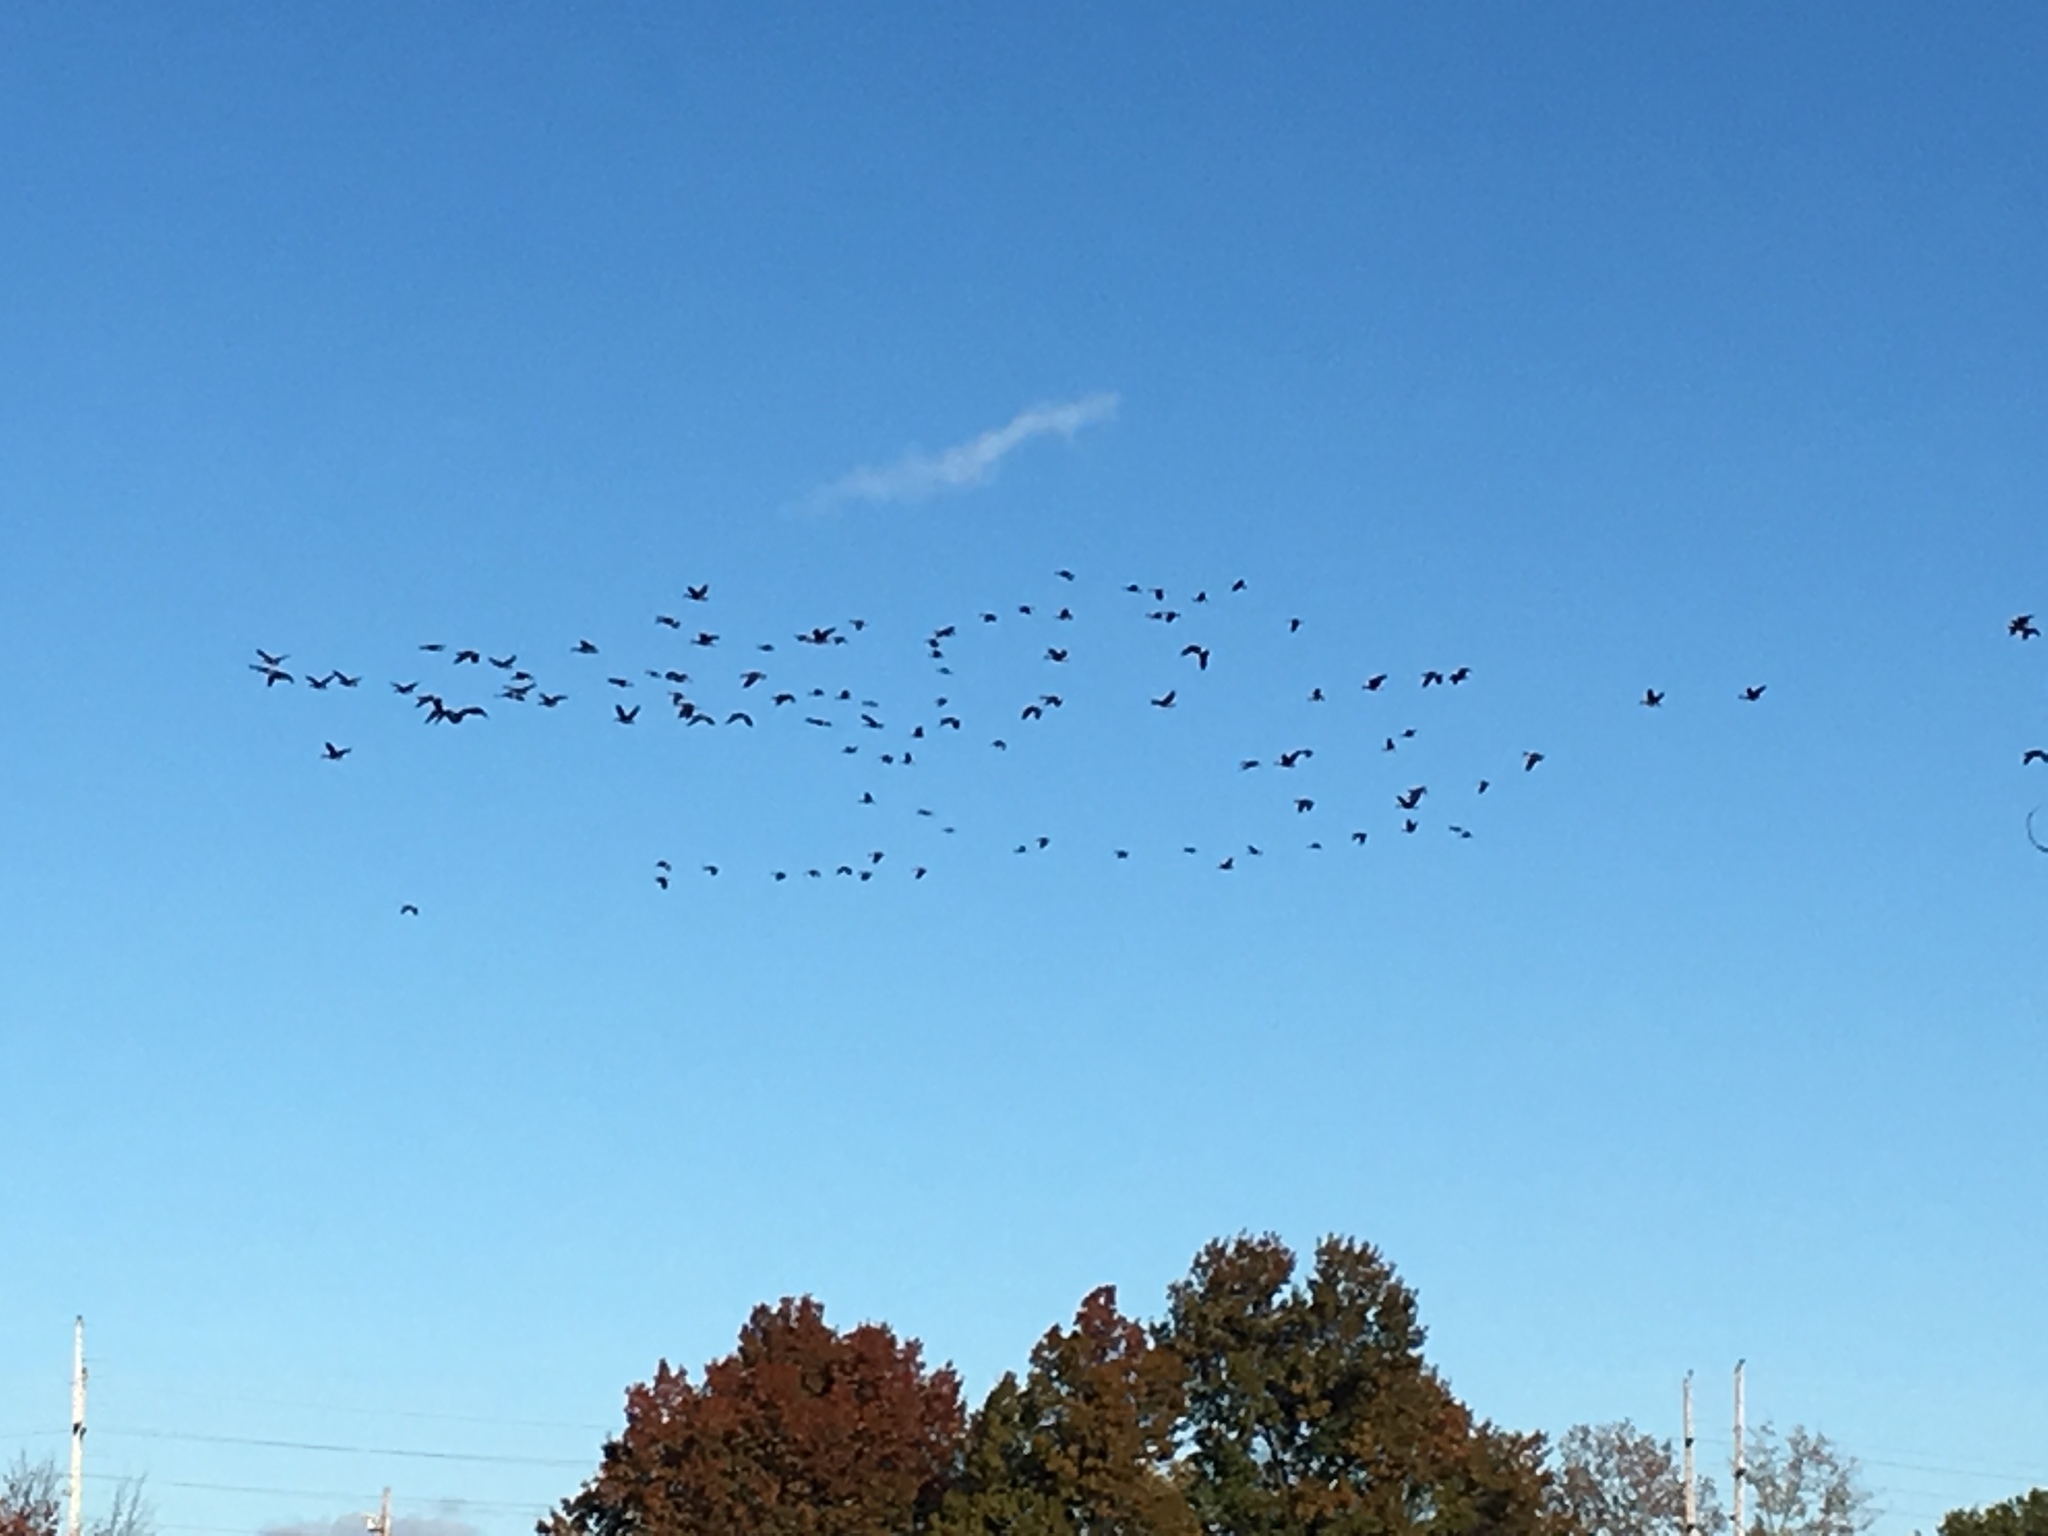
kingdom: Animalia
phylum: Chordata
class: Aves
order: Anseriformes
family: Anatidae
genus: Branta
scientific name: Branta canadensis
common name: Canada goose
